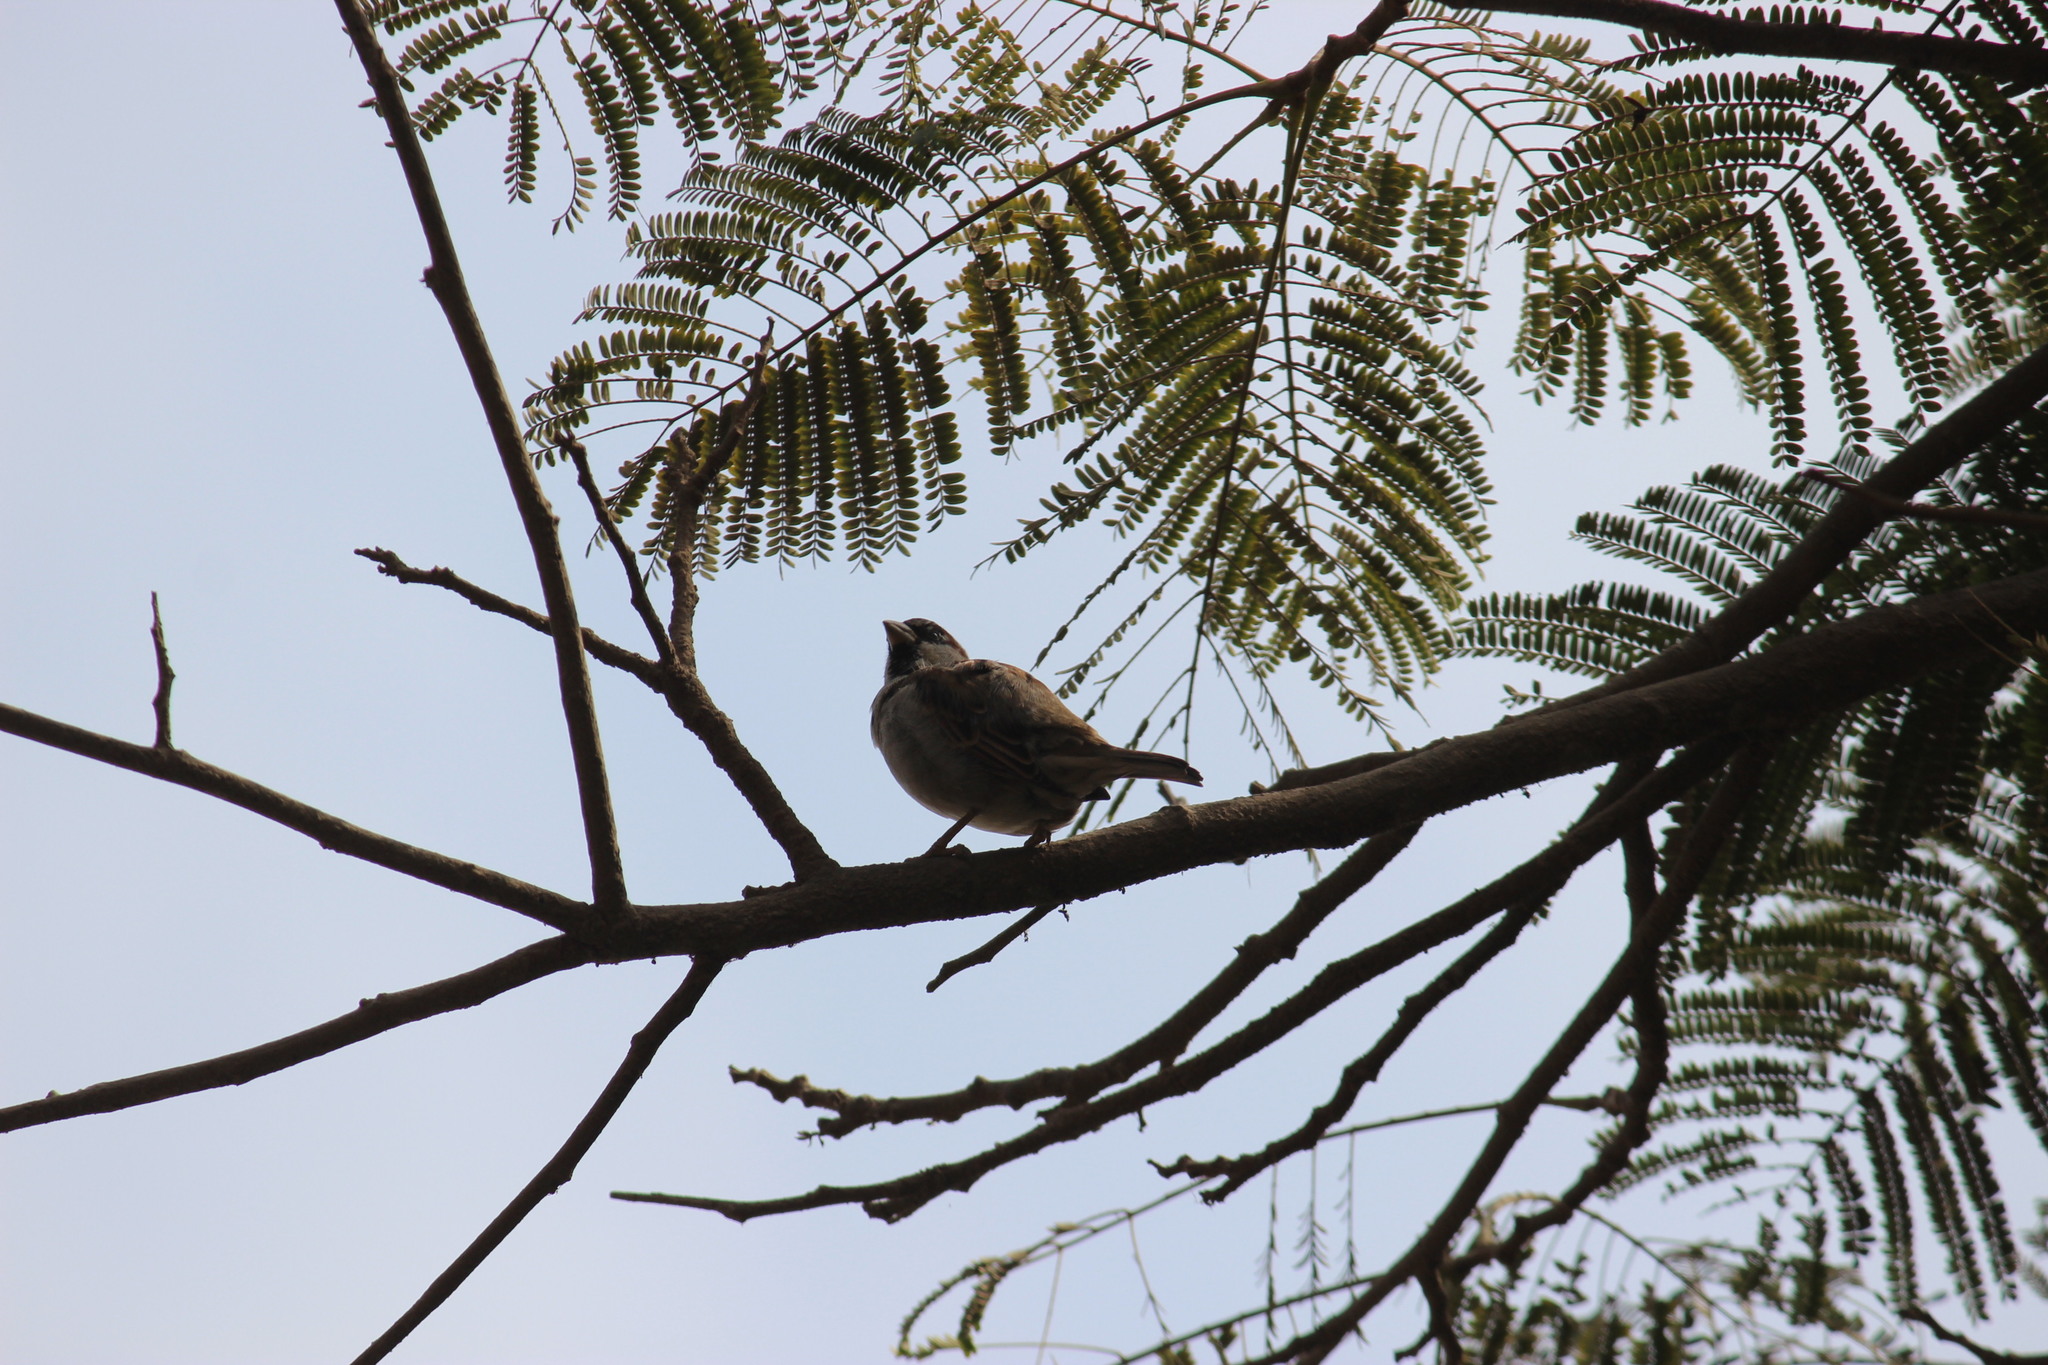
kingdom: Animalia
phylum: Chordata
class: Aves
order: Passeriformes
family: Passeridae
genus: Passer
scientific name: Passer domesticus
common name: House sparrow
